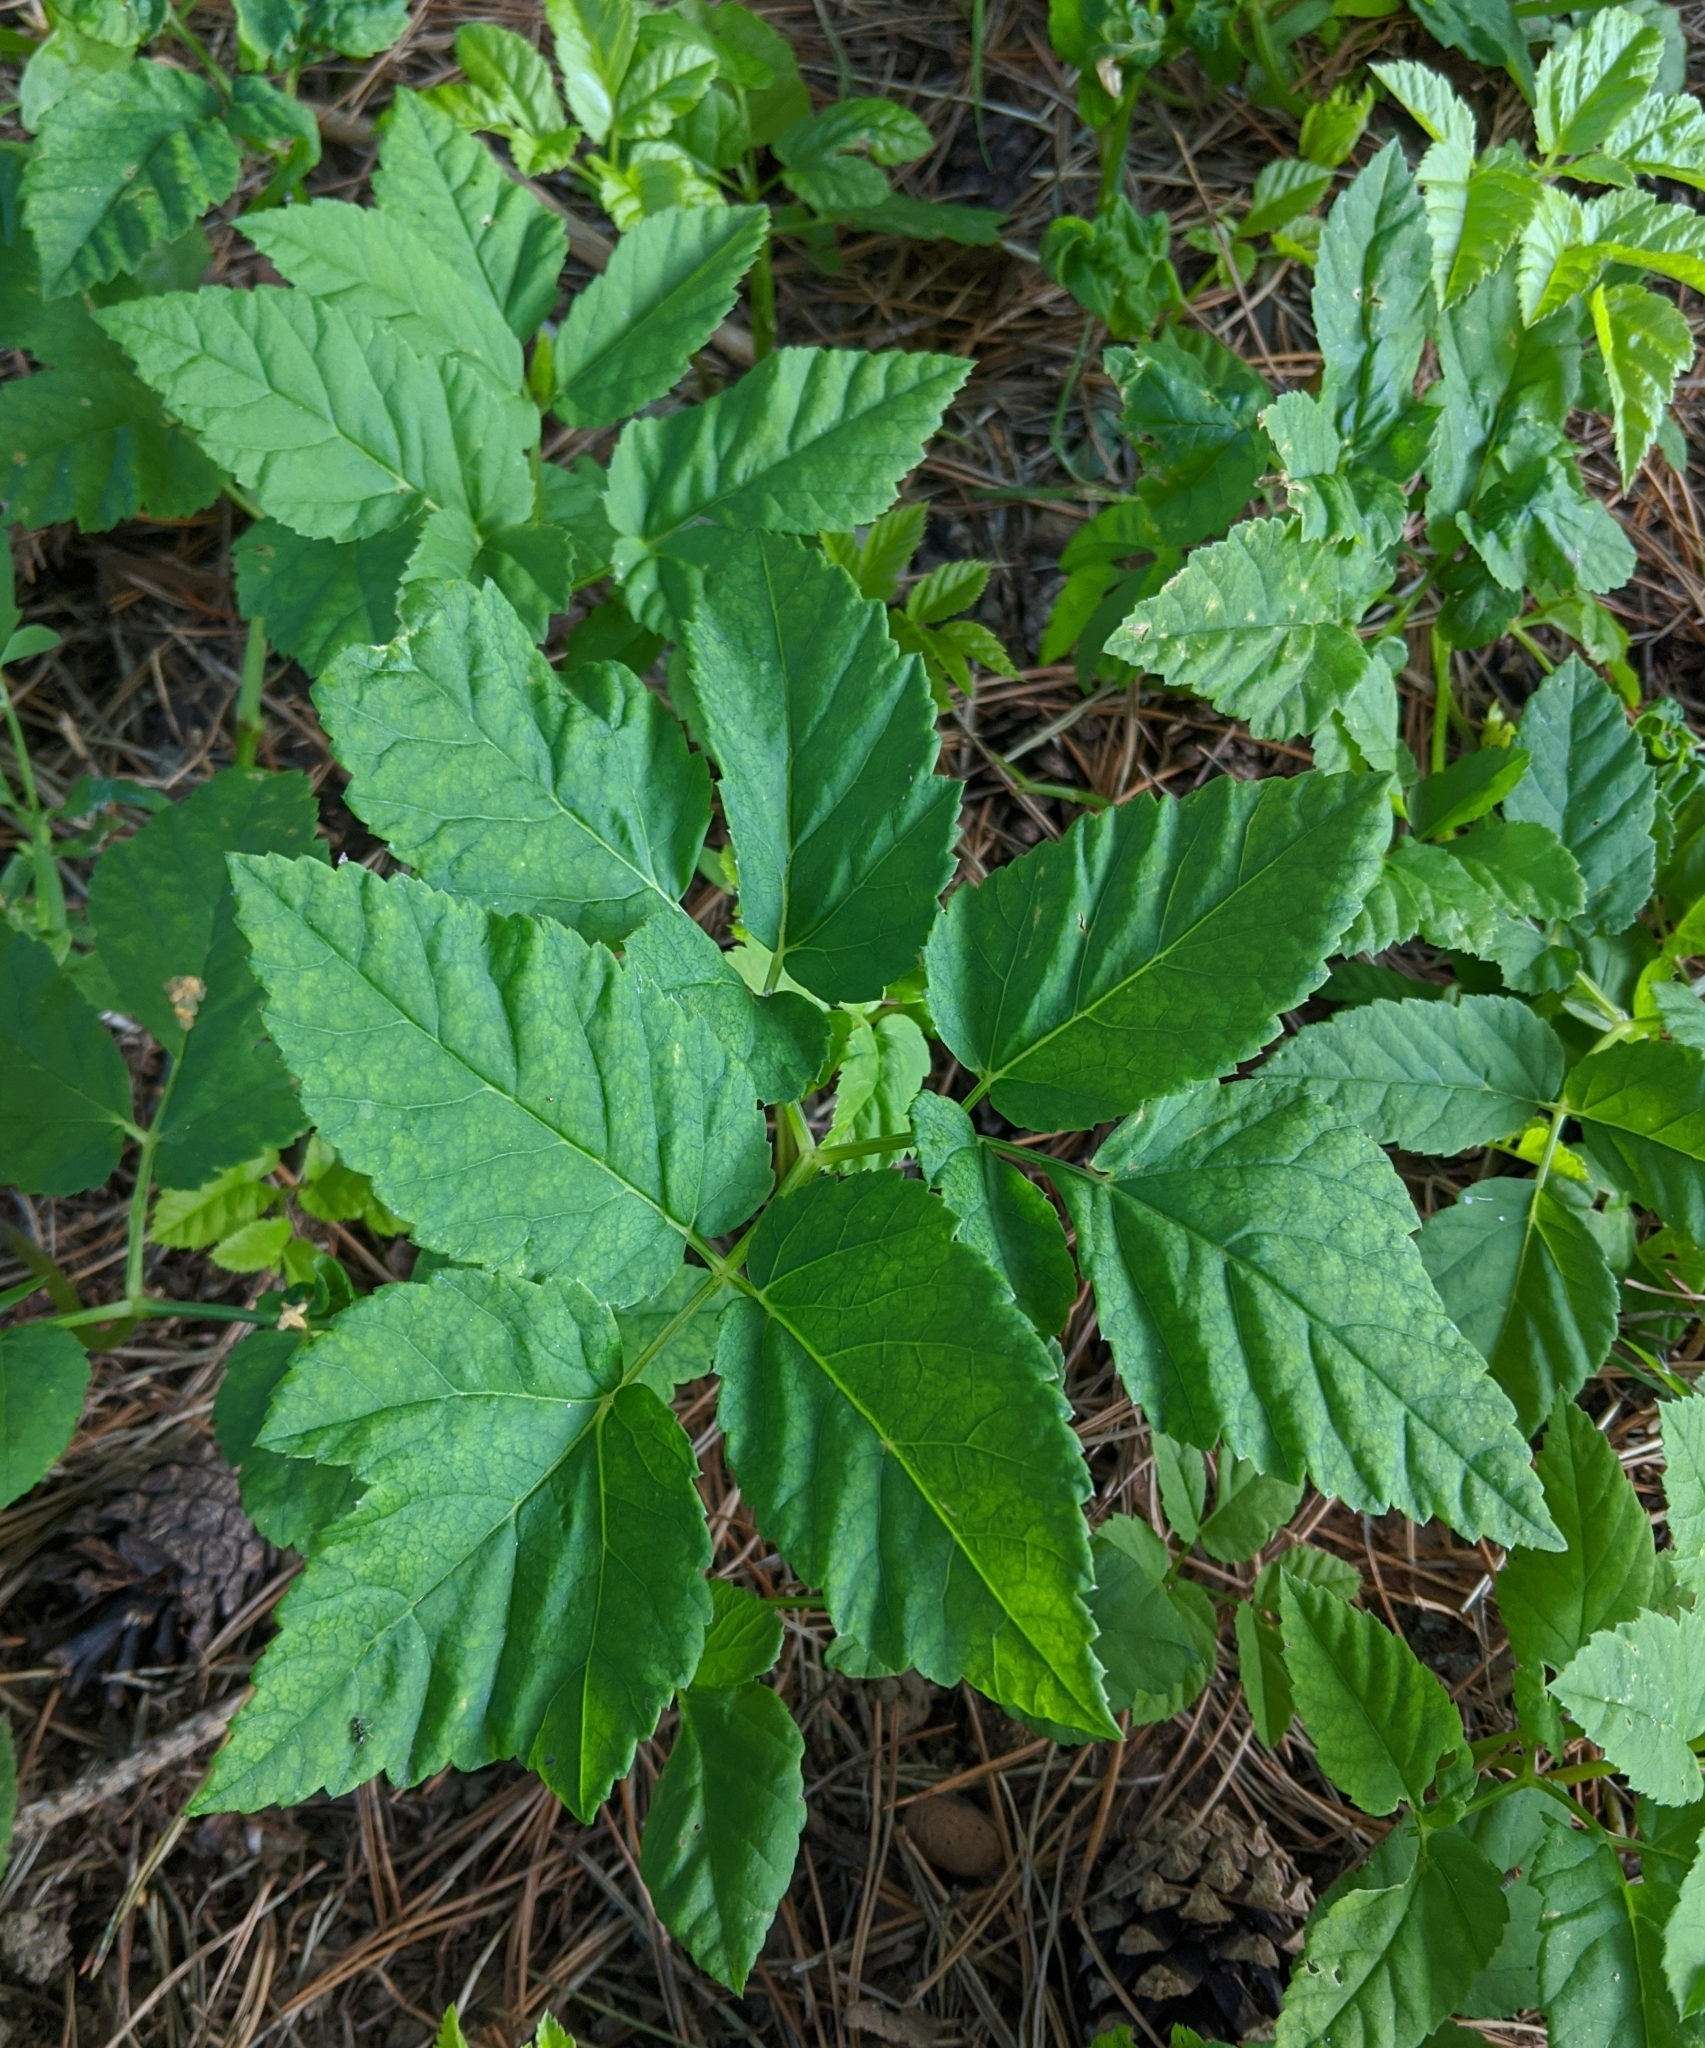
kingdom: Plantae
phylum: Tracheophyta
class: Magnoliopsida
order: Apiales
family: Apiaceae
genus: Aegopodium
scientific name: Aegopodium podagraria
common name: Ground-elder
